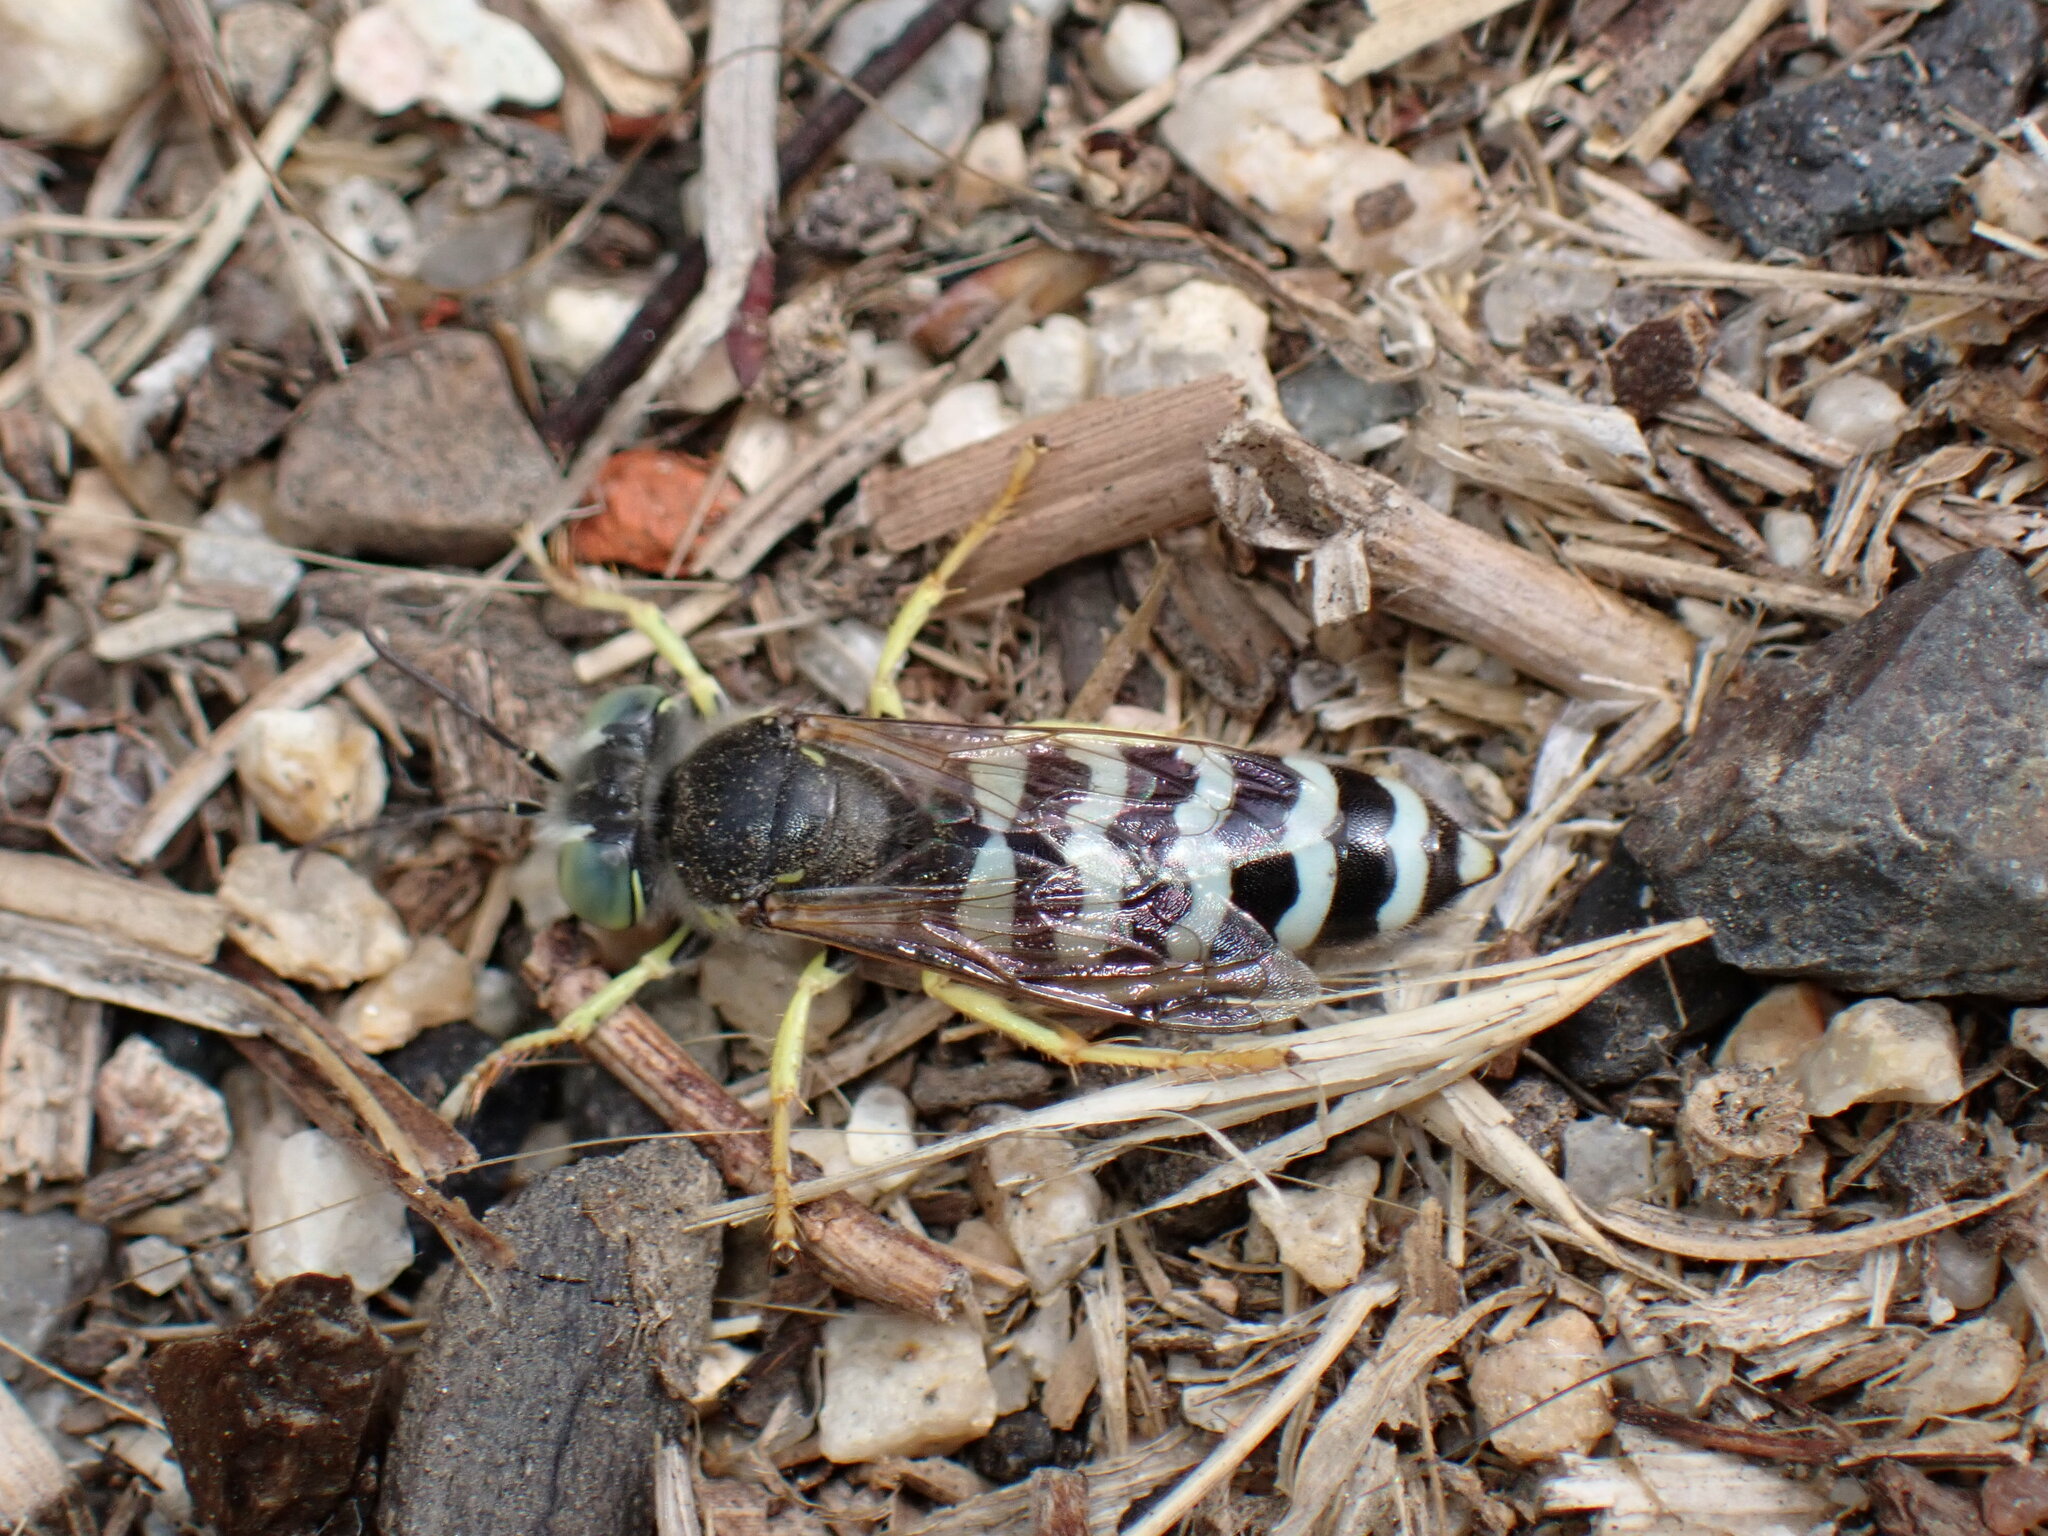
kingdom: Animalia
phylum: Arthropoda
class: Insecta
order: Hymenoptera
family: Crabronidae
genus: Bembix
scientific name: Bembix americana
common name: American sand wasp
